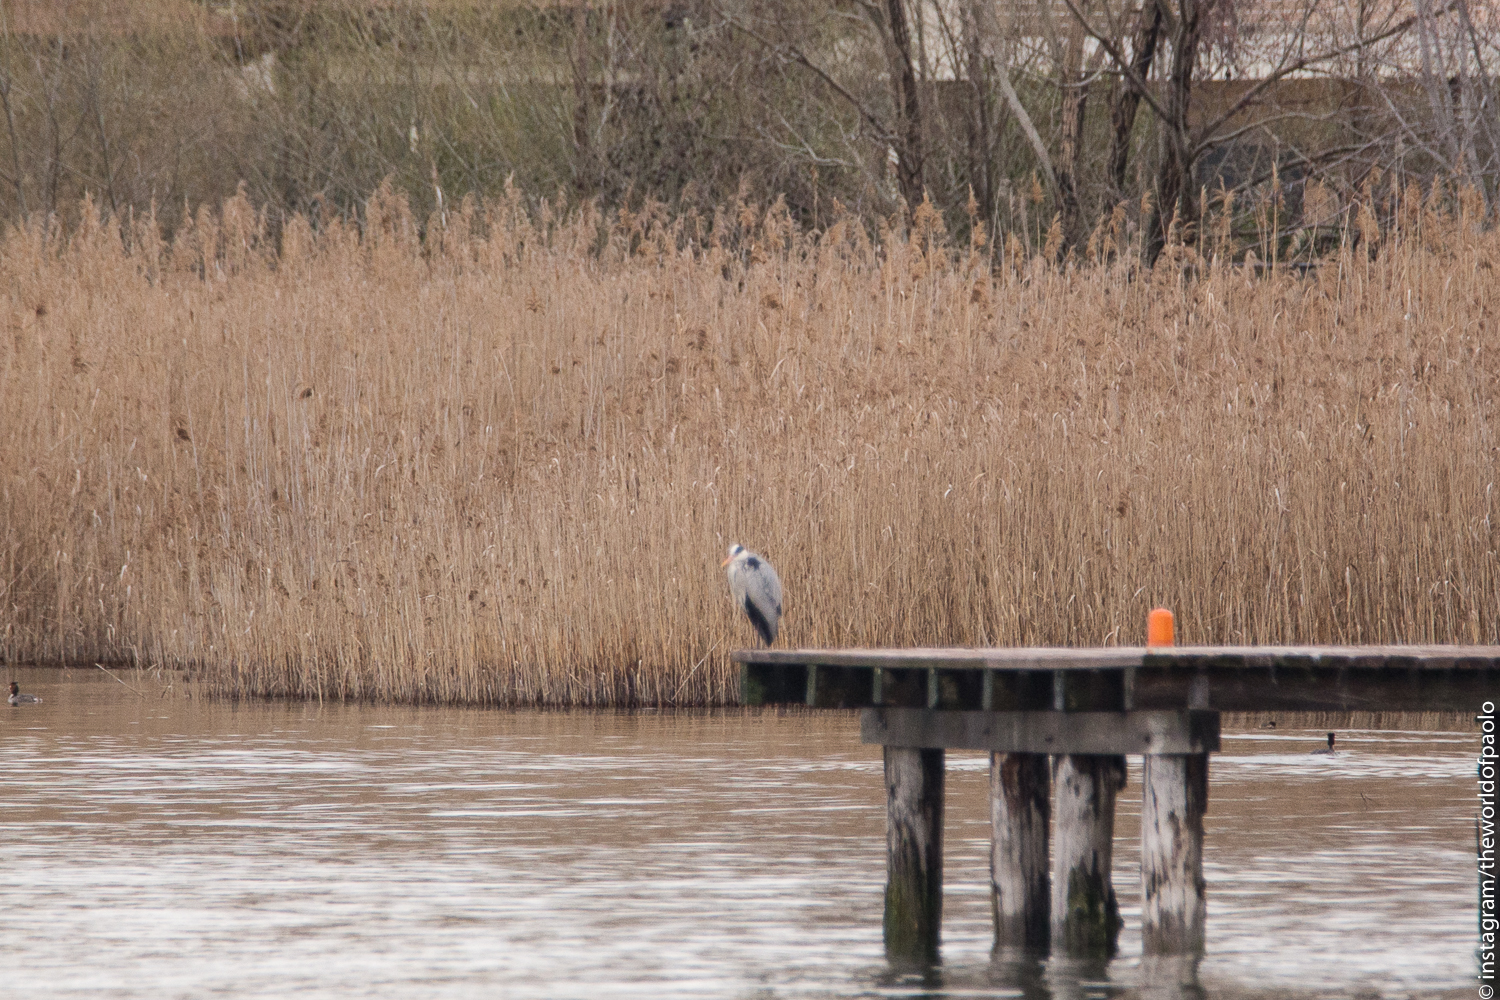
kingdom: Animalia
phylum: Chordata
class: Aves
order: Pelecaniformes
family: Ardeidae
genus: Ardea
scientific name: Ardea cinerea
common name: Grey heron
